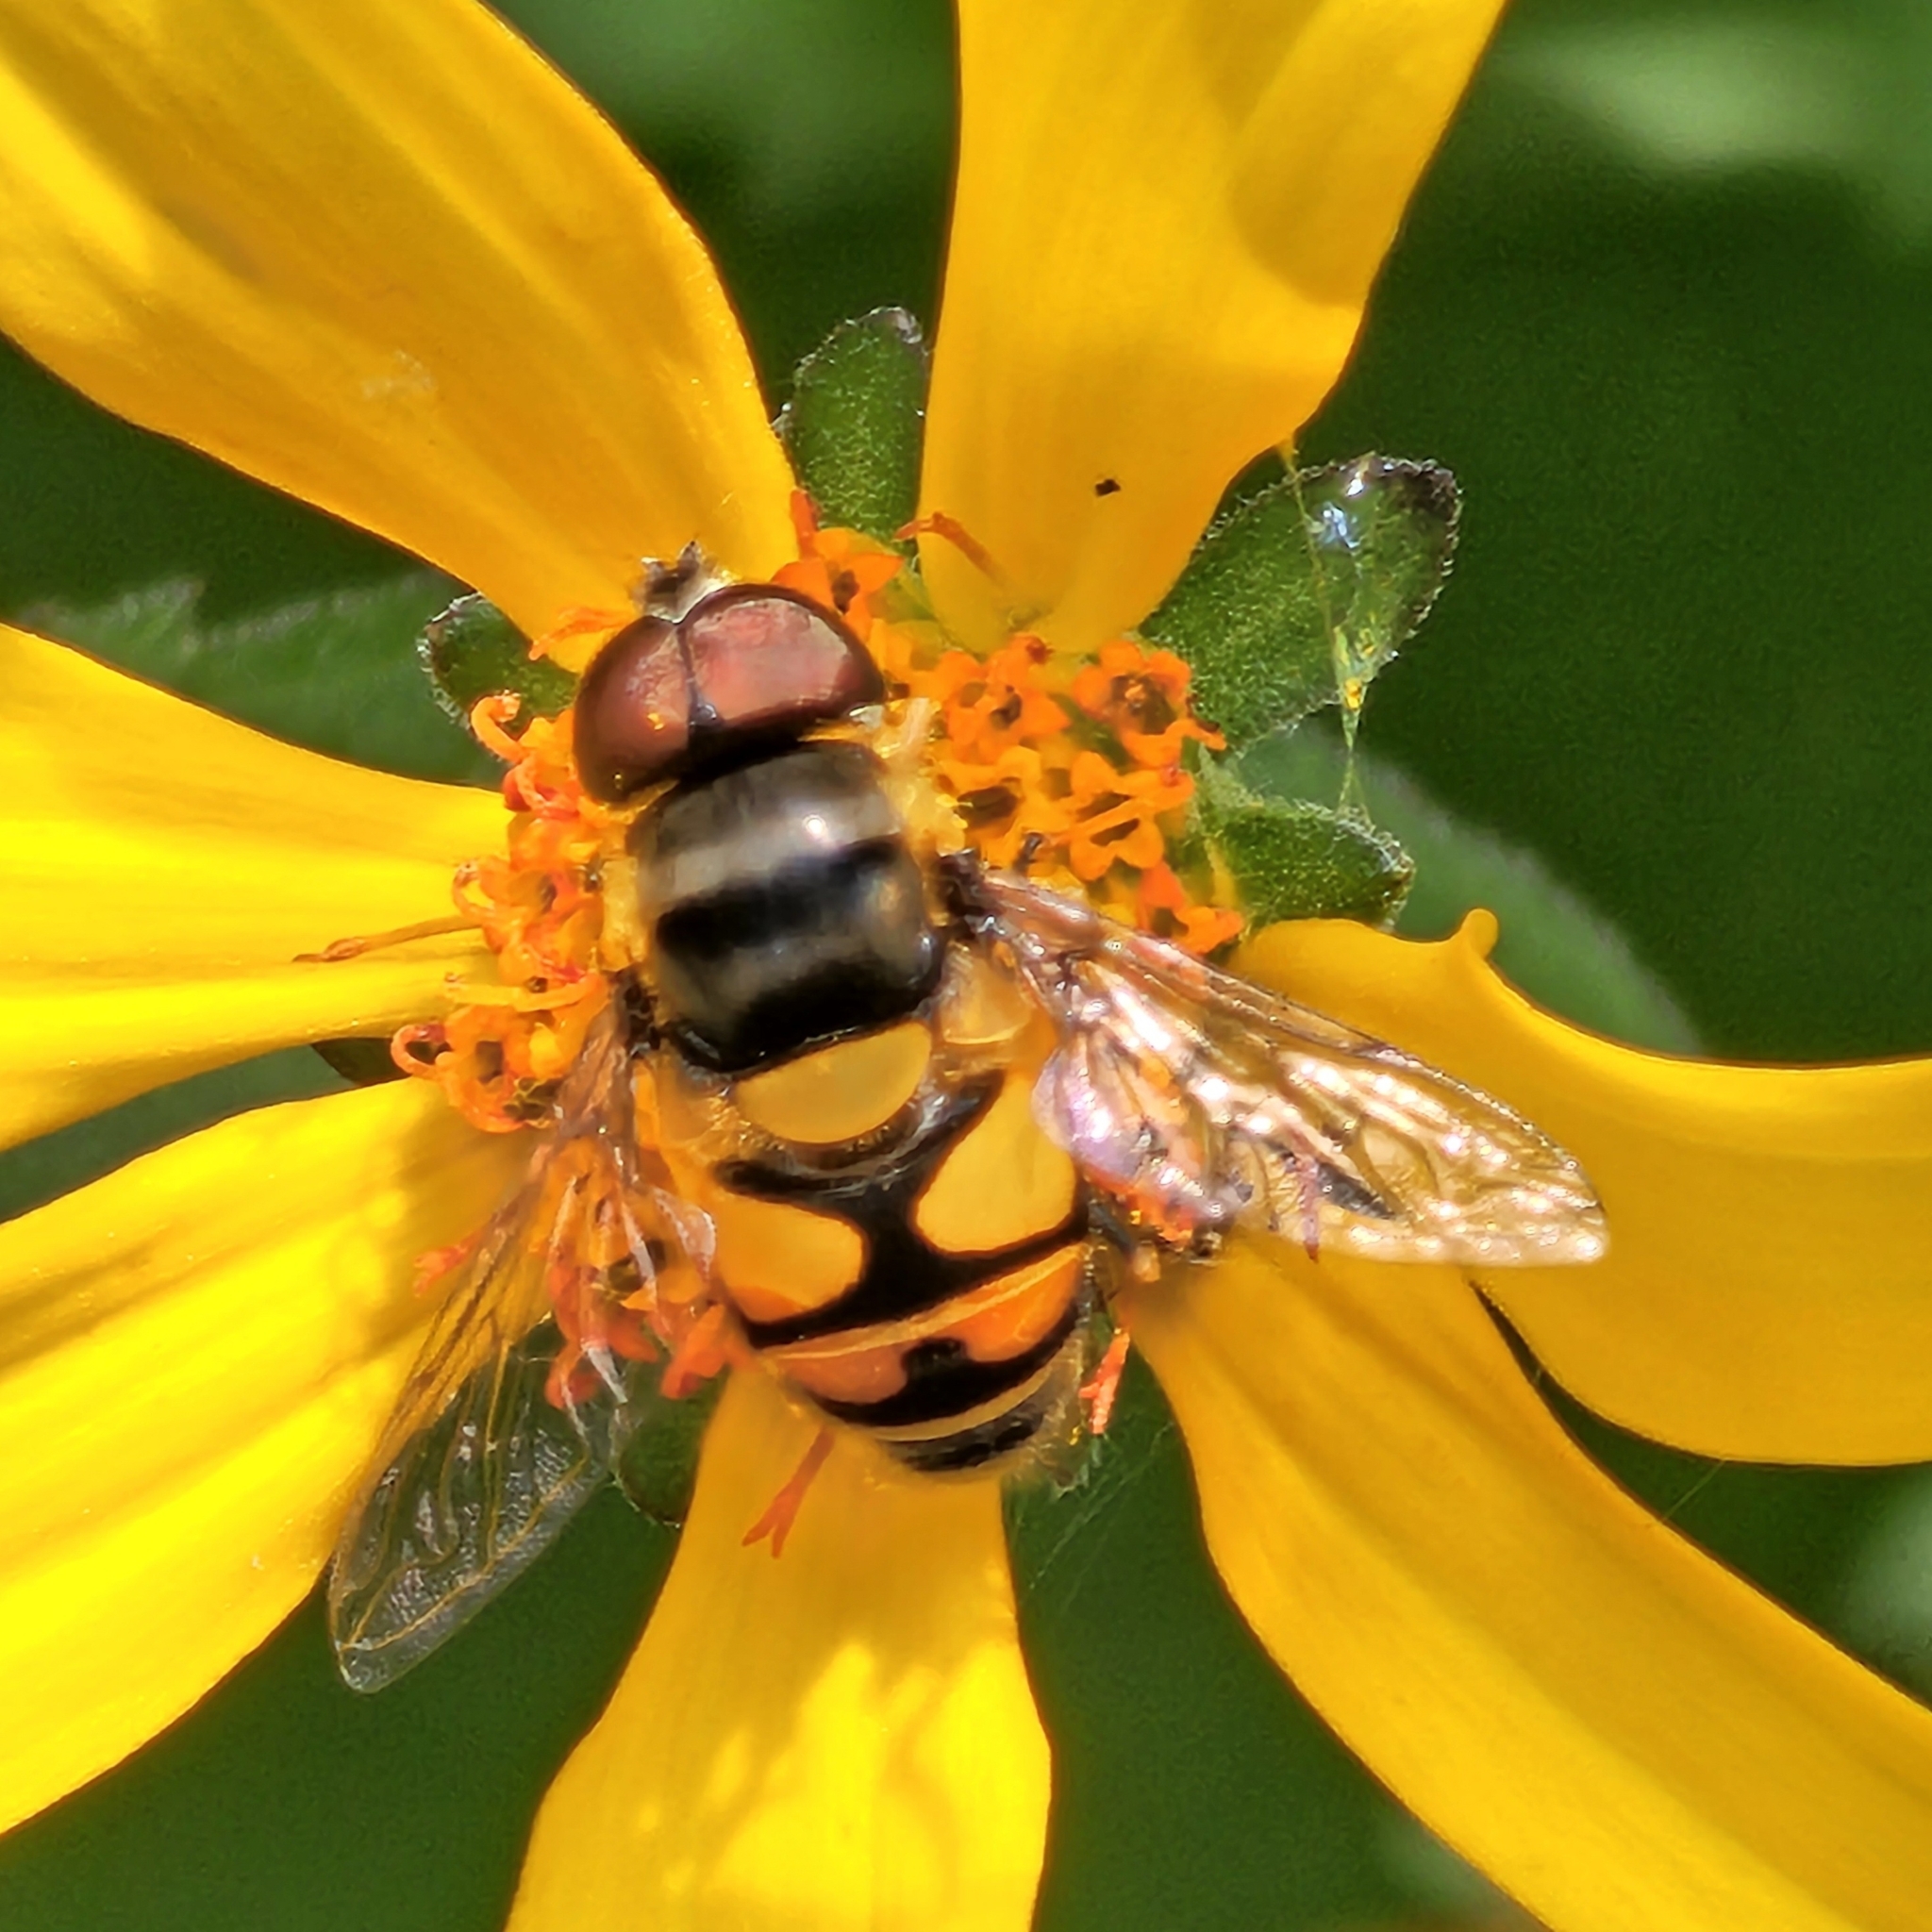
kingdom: Animalia
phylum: Arthropoda
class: Insecta
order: Diptera
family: Syrphidae
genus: Eristalis
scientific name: Eristalis transversa
